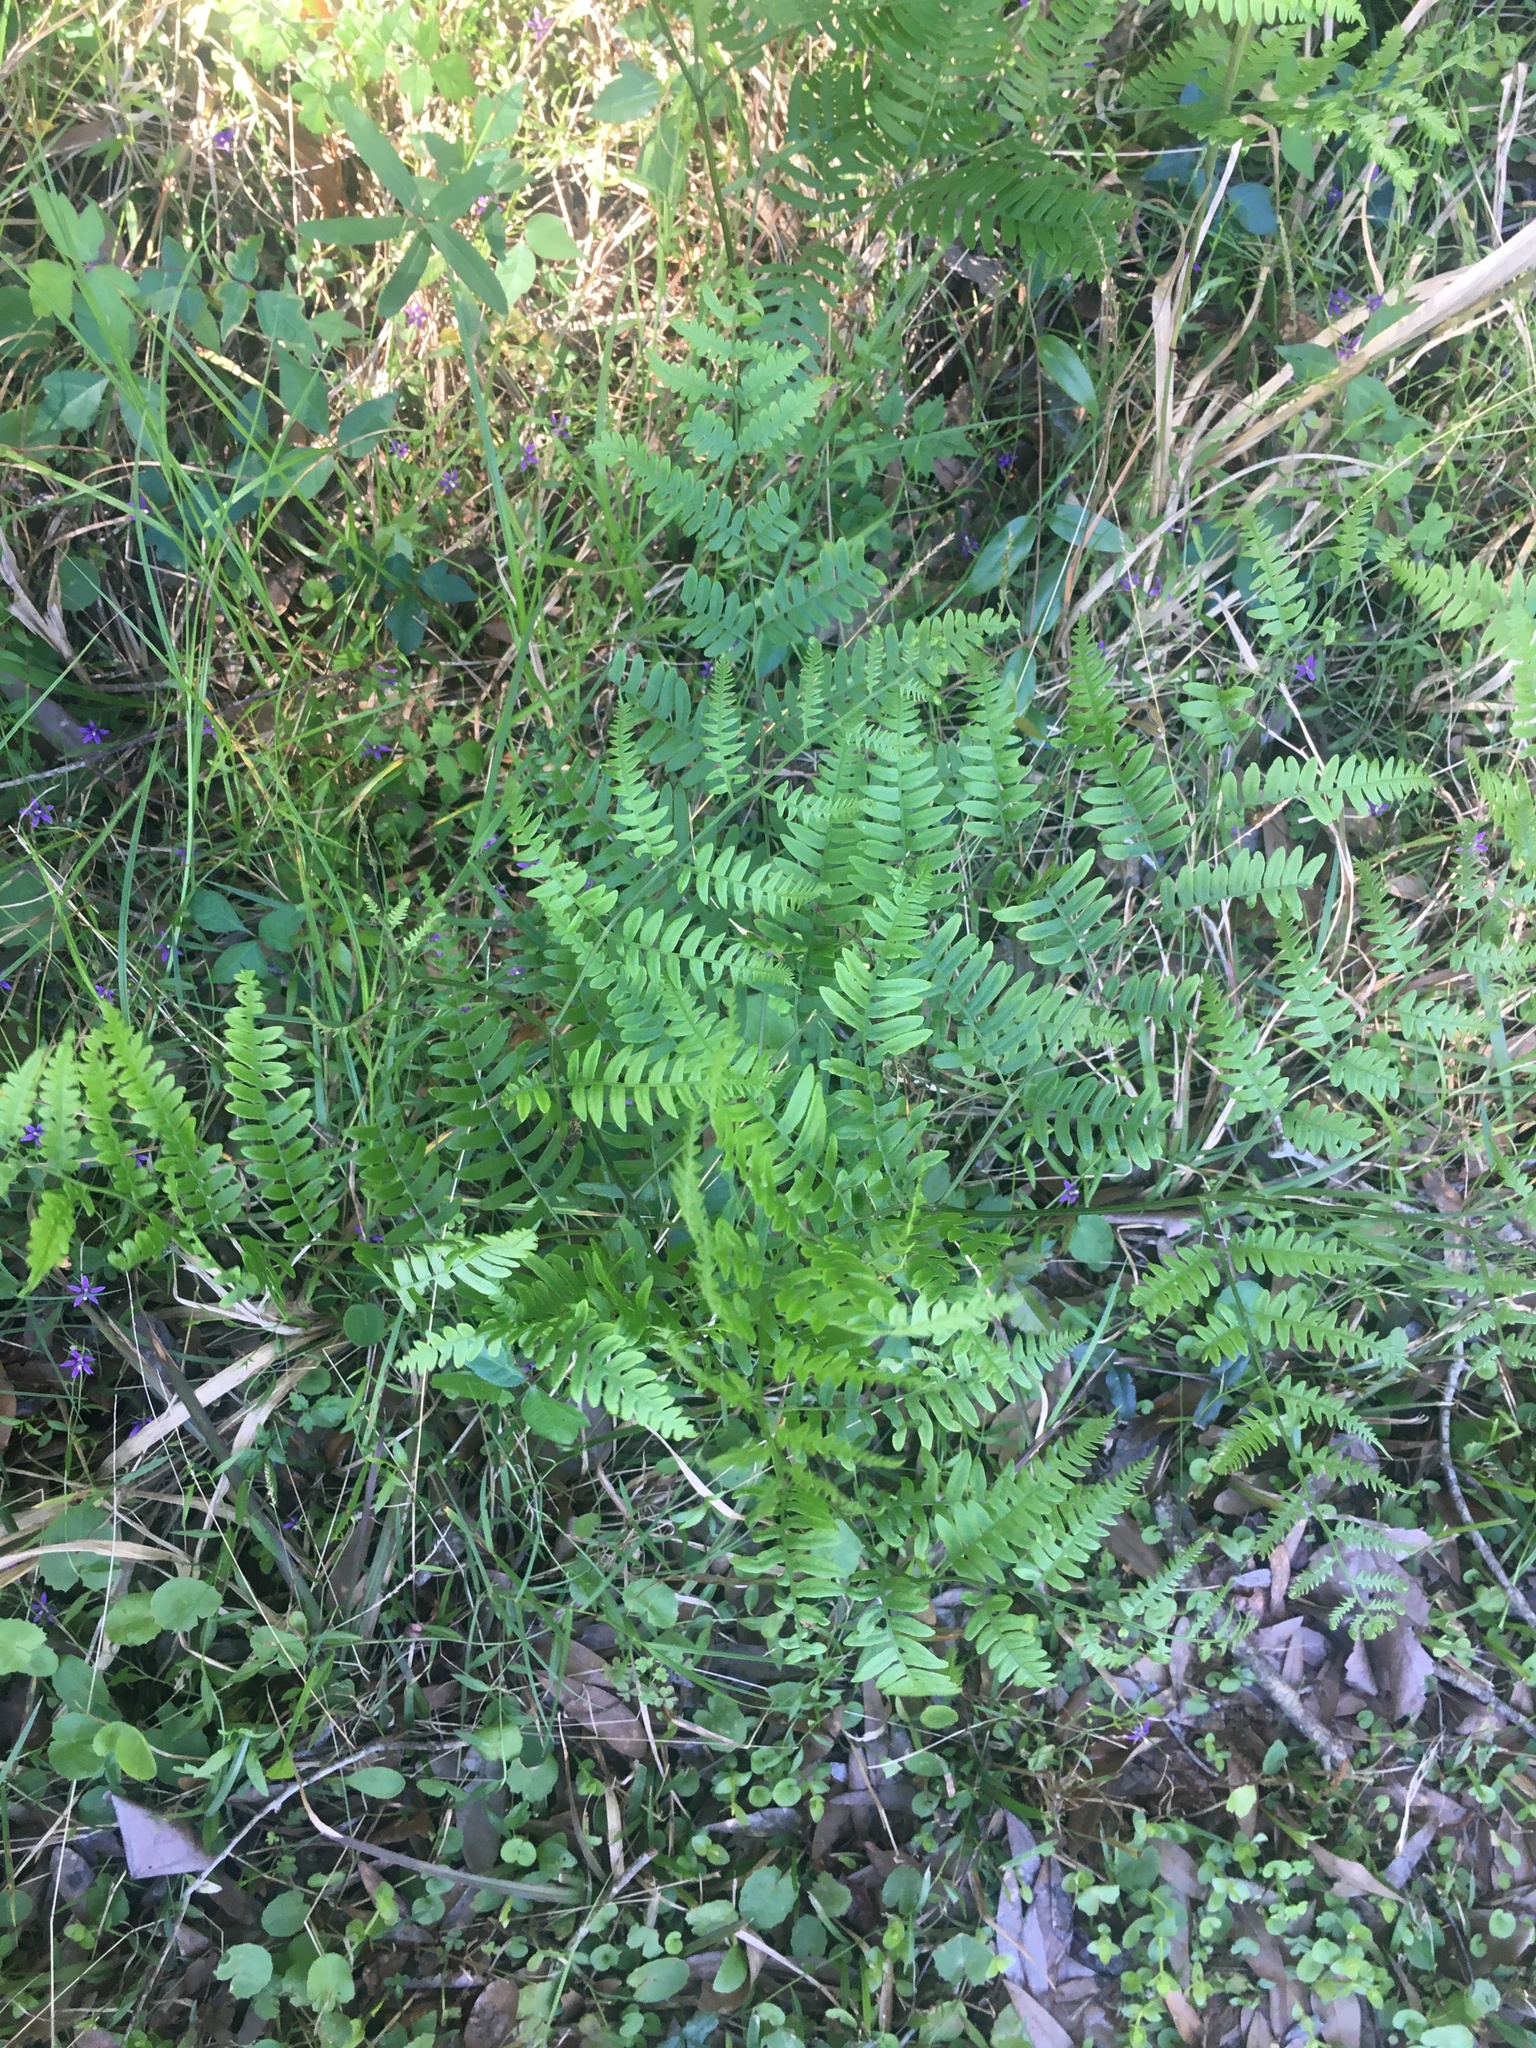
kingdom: Plantae
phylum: Tracheophyta
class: Polypodiopsida
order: Polypodiales
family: Dennstaedtiaceae
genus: Pteridium
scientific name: Pteridium aquilinum
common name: Bracken
